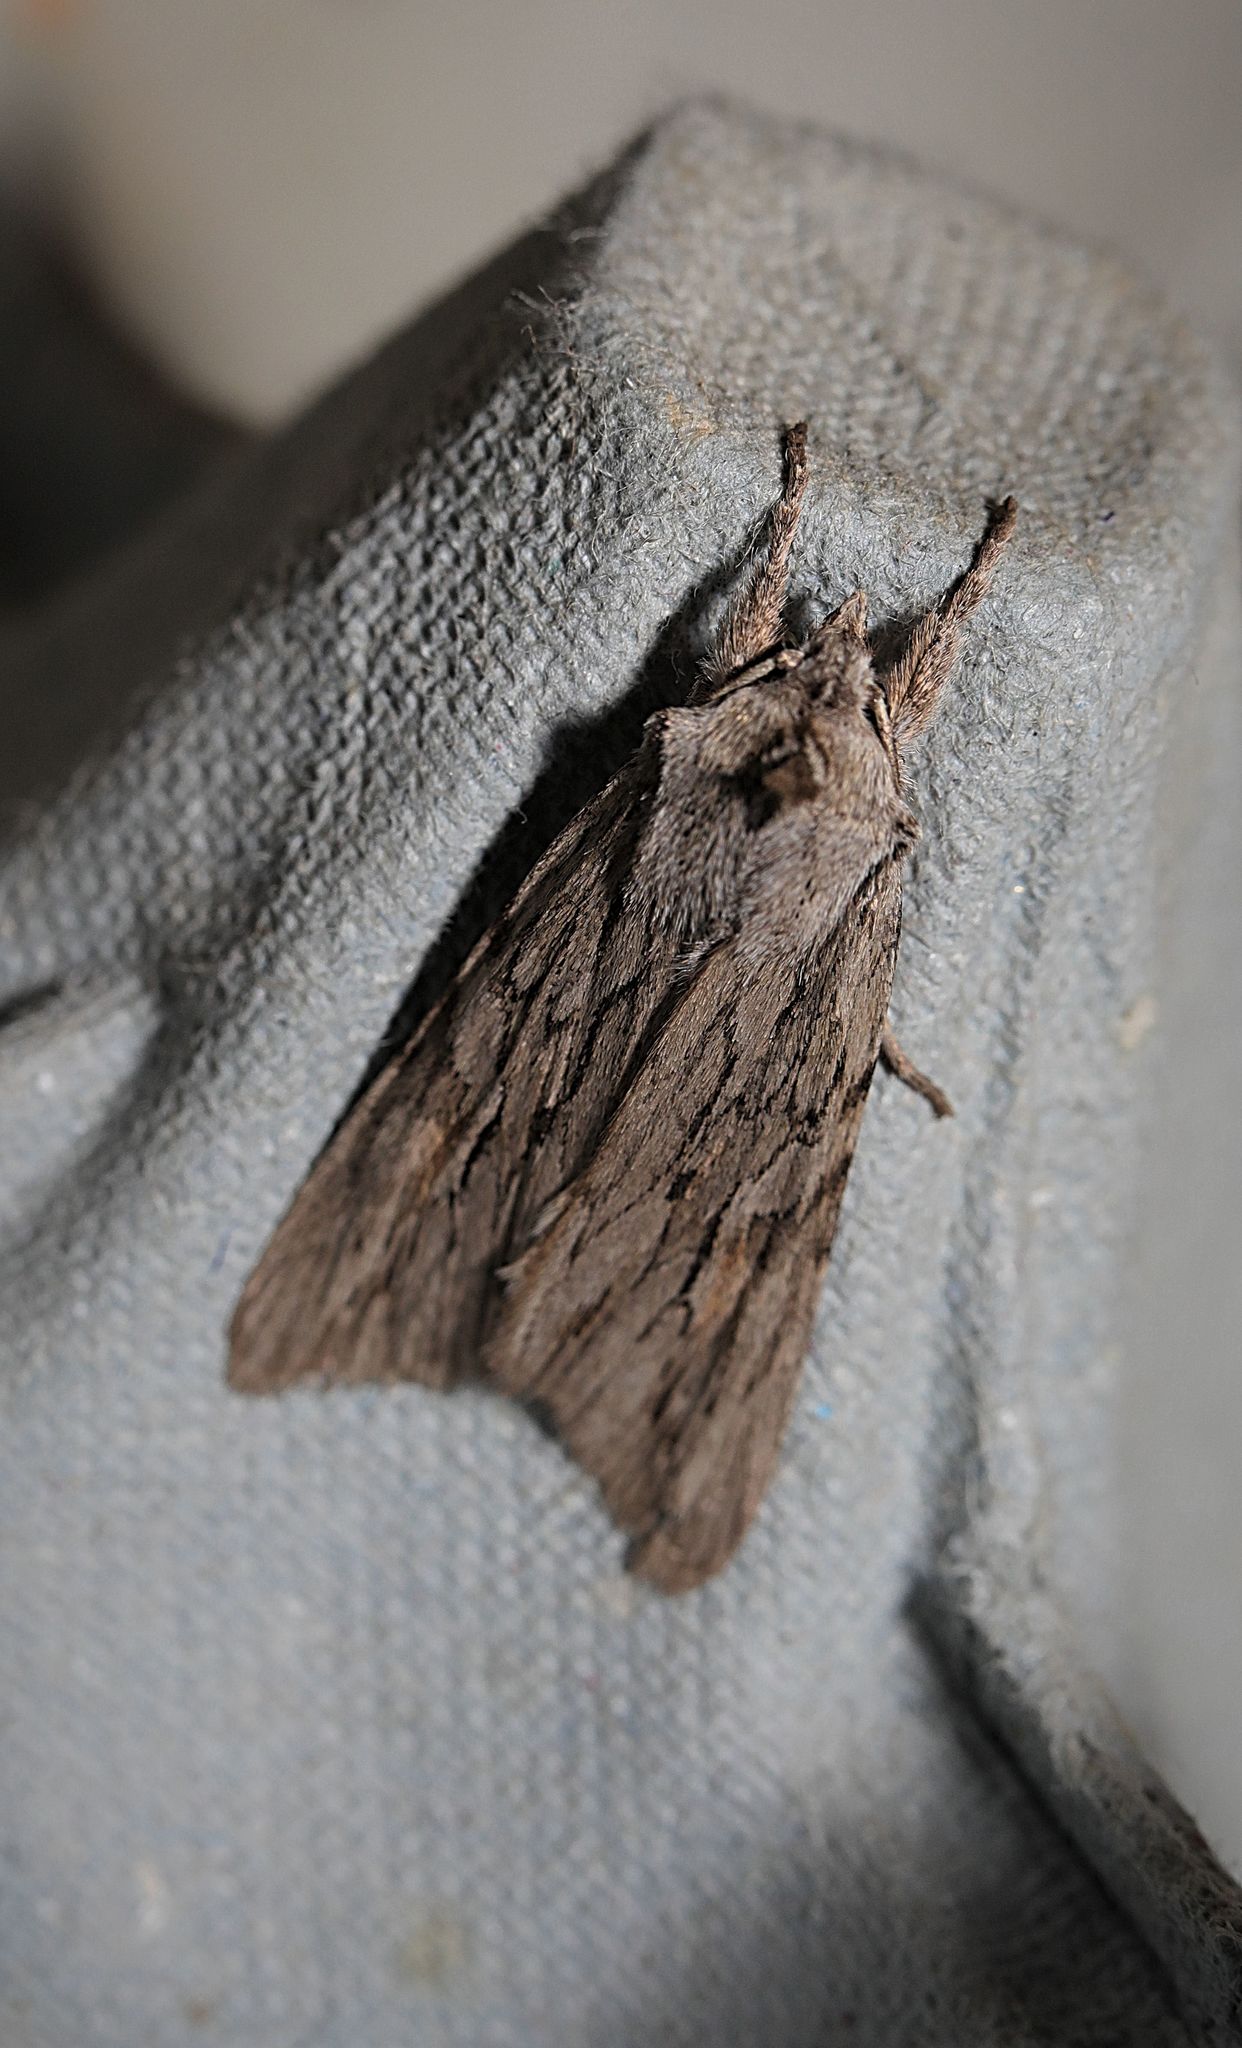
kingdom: Animalia
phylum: Arthropoda
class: Insecta
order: Lepidoptera
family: Noctuidae
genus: Lithophane
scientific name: Lithophane leautieri
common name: Blair's shoulder-knot
